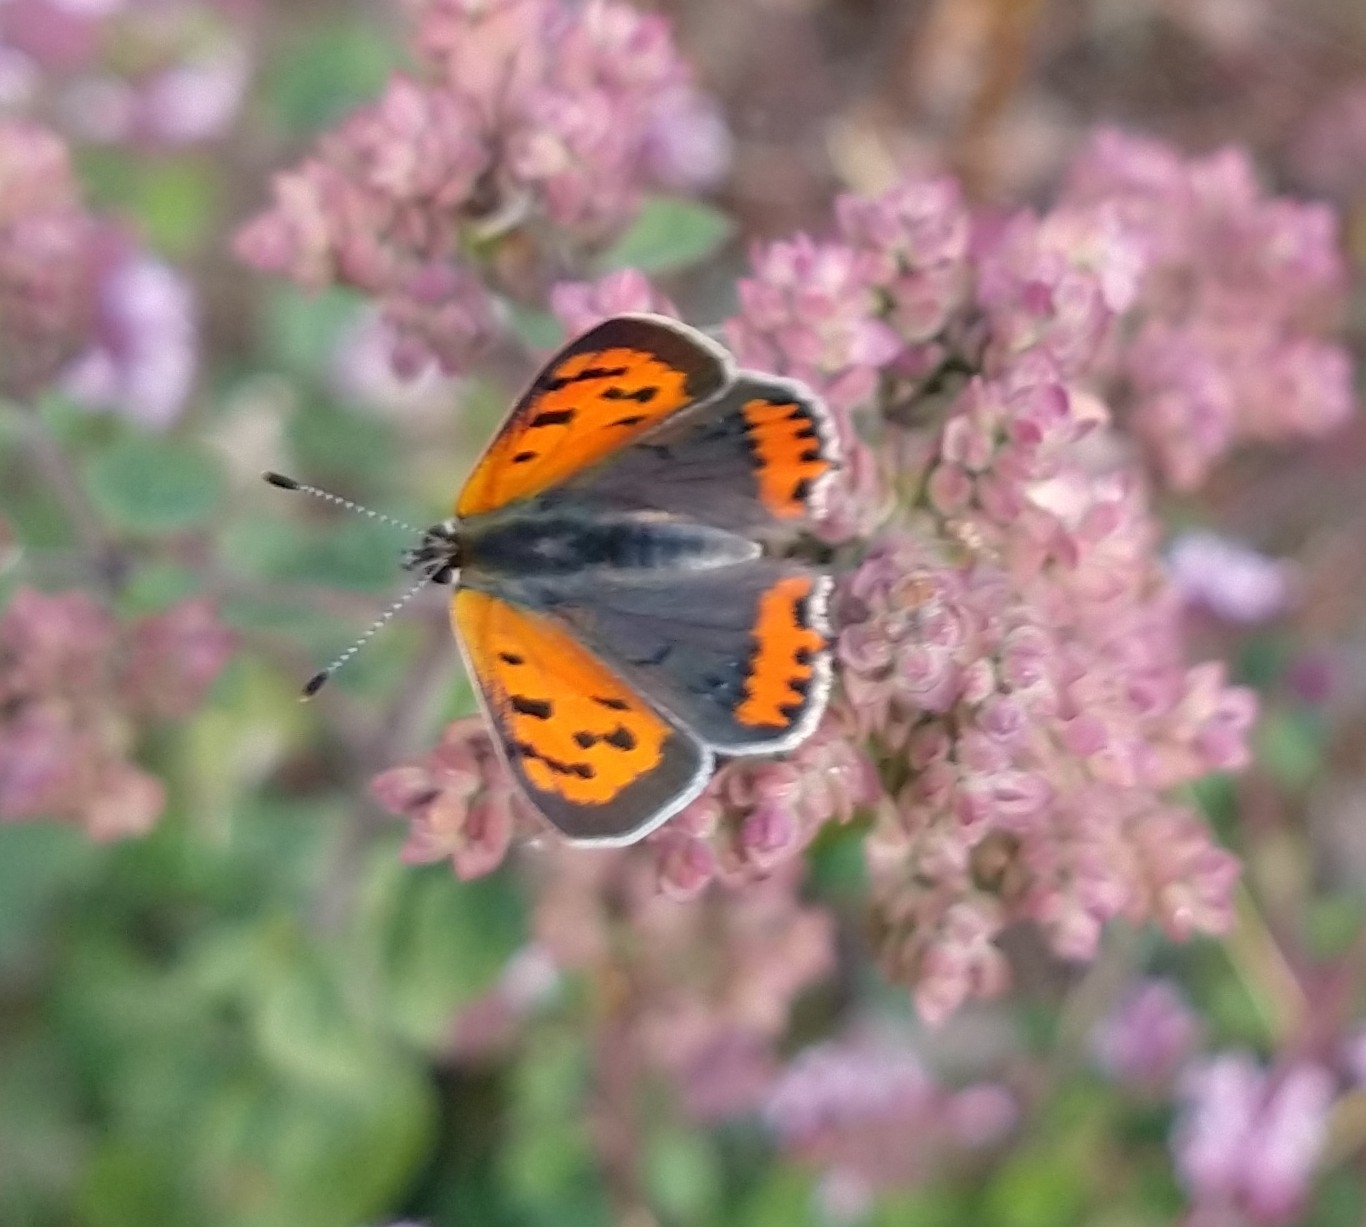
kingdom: Animalia
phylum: Arthropoda
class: Insecta
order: Lepidoptera
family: Lycaenidae
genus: Lycaena
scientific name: Lycaena phlaeas
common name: Small copper
